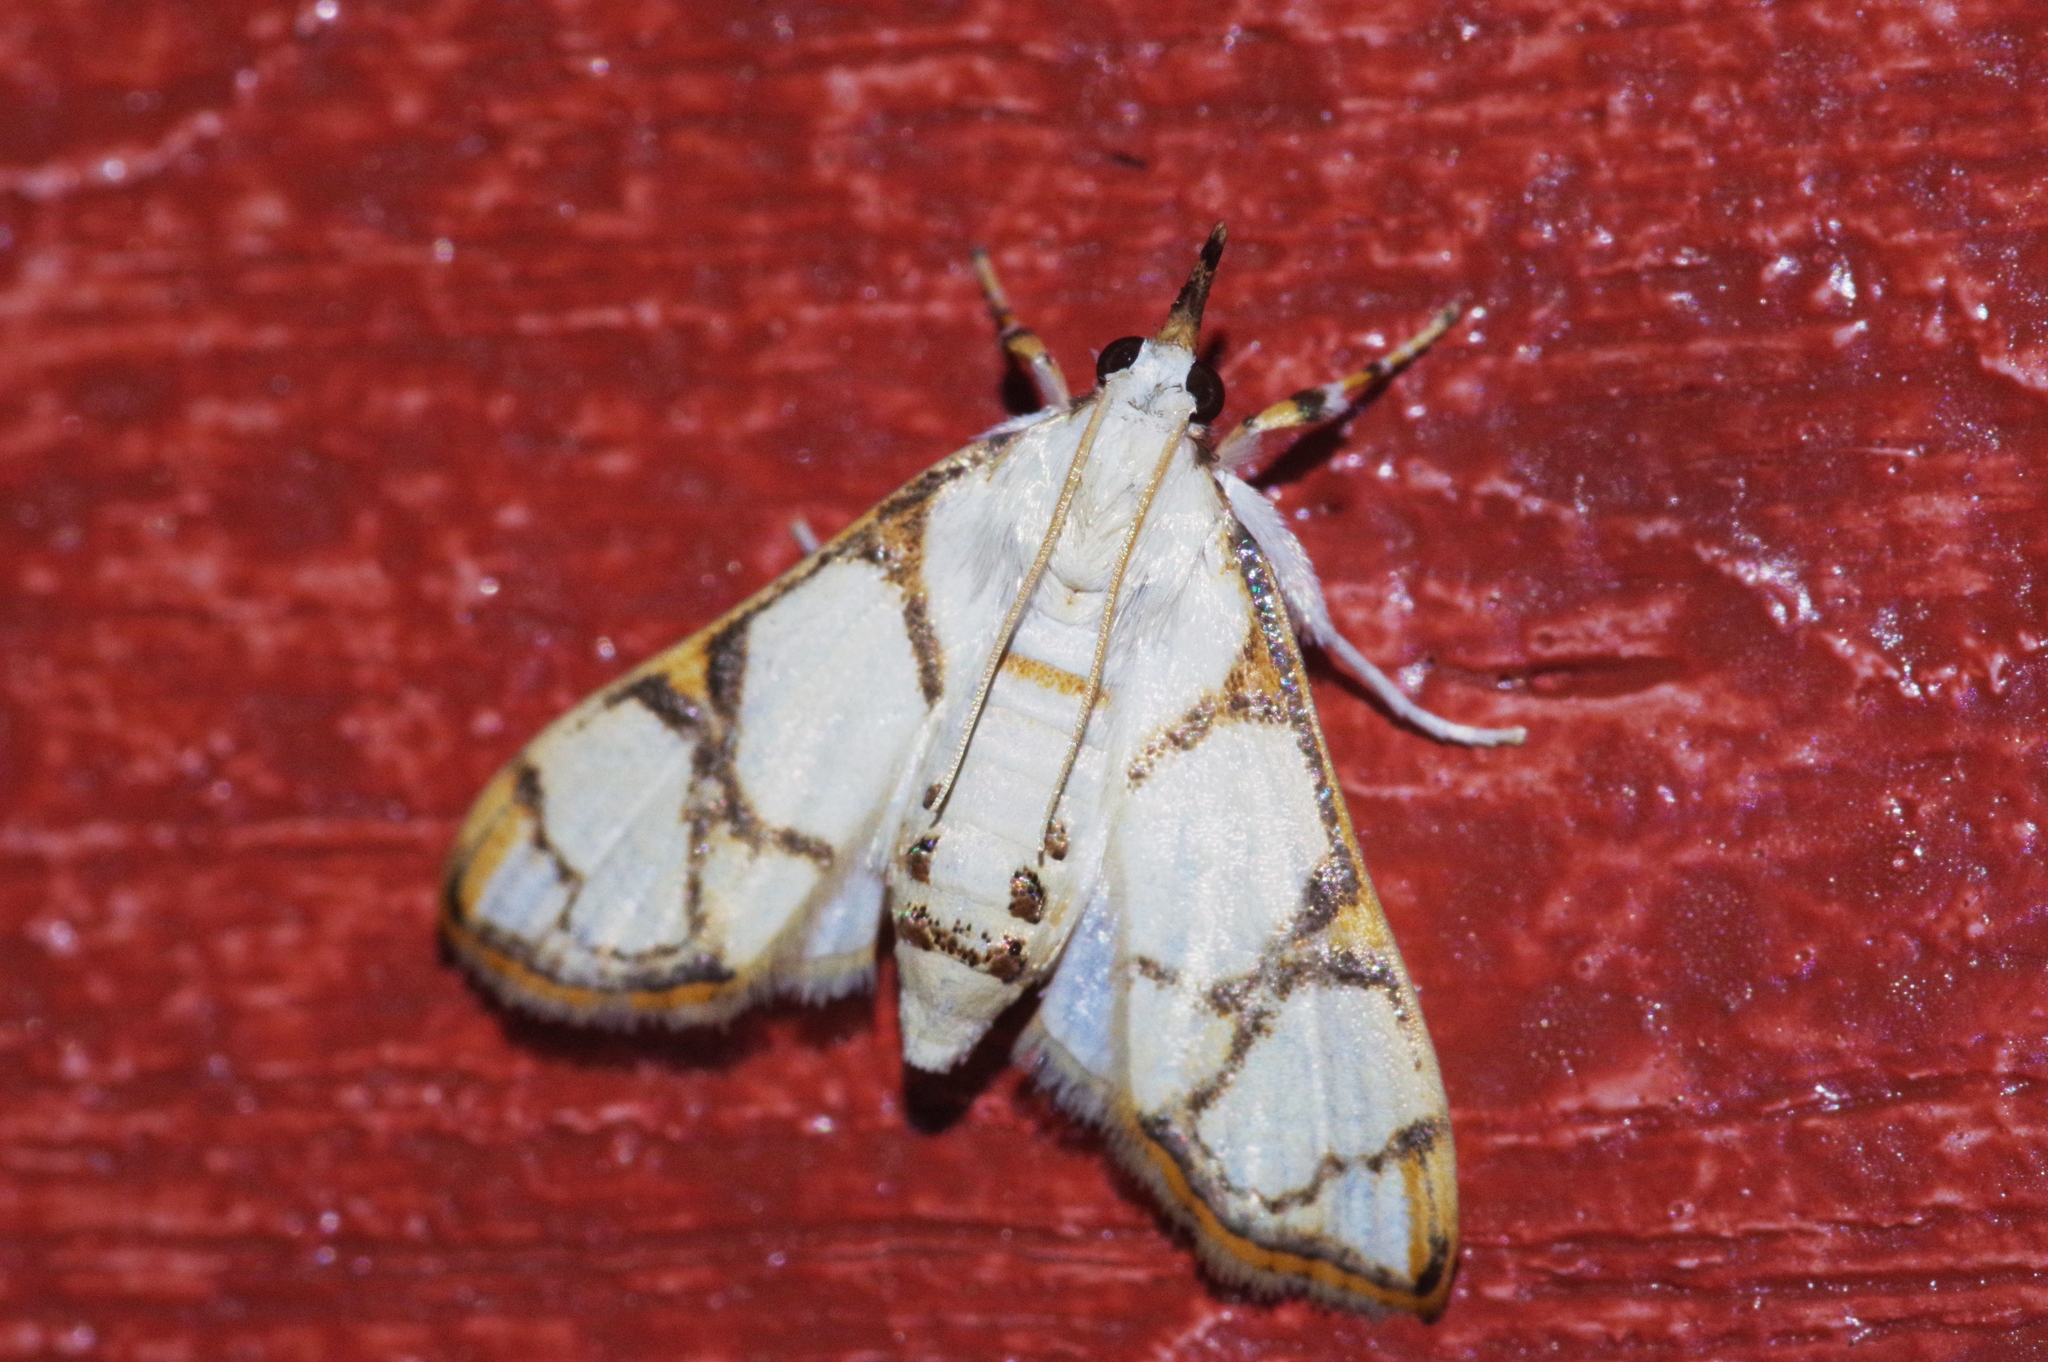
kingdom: Animalia
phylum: Arthropoda
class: Insecta
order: Lepidoptera
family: Crambidae
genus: Cirrhochrista
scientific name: Cirrhochrista kosemponialis
